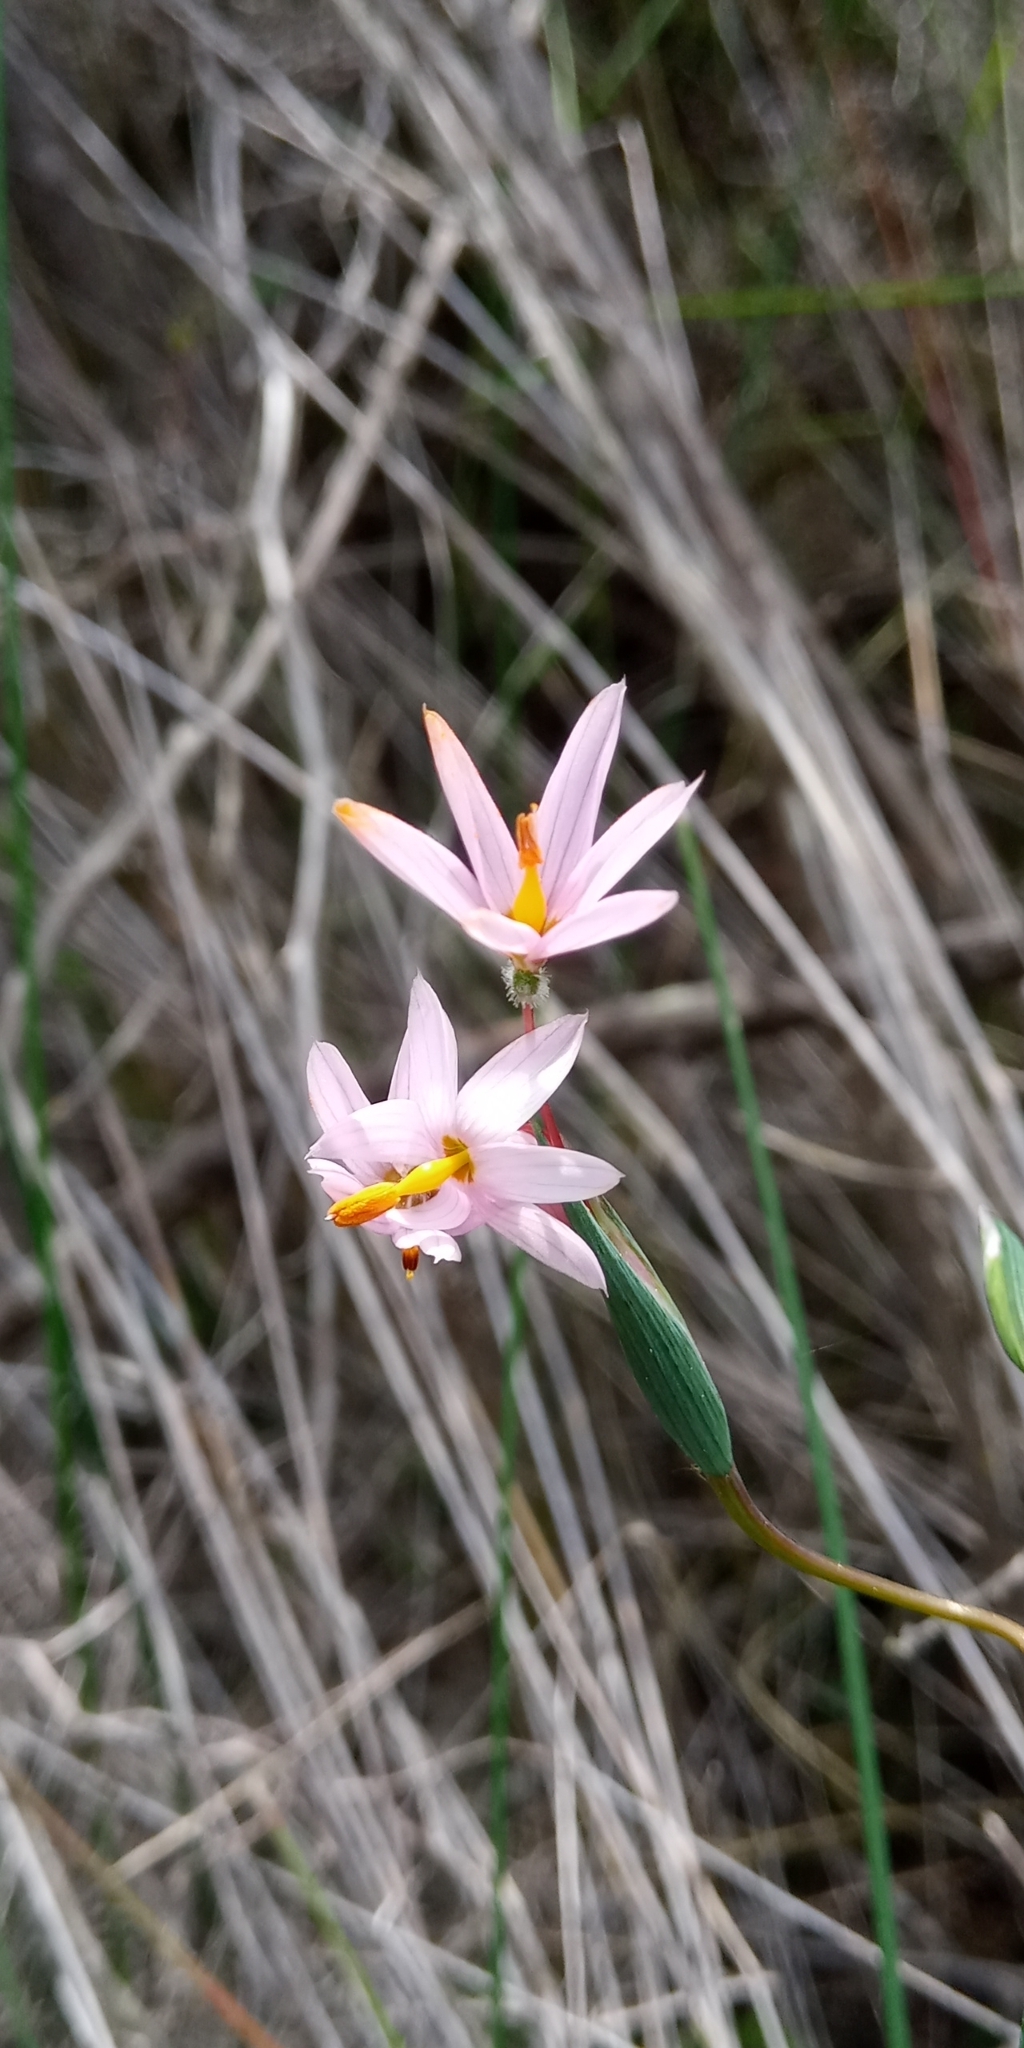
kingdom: Plantae
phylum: Tracheophyta
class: Liliopsida
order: Asparagales
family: Iridaceae
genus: Olsynium
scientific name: Olsynium scirpoideum
